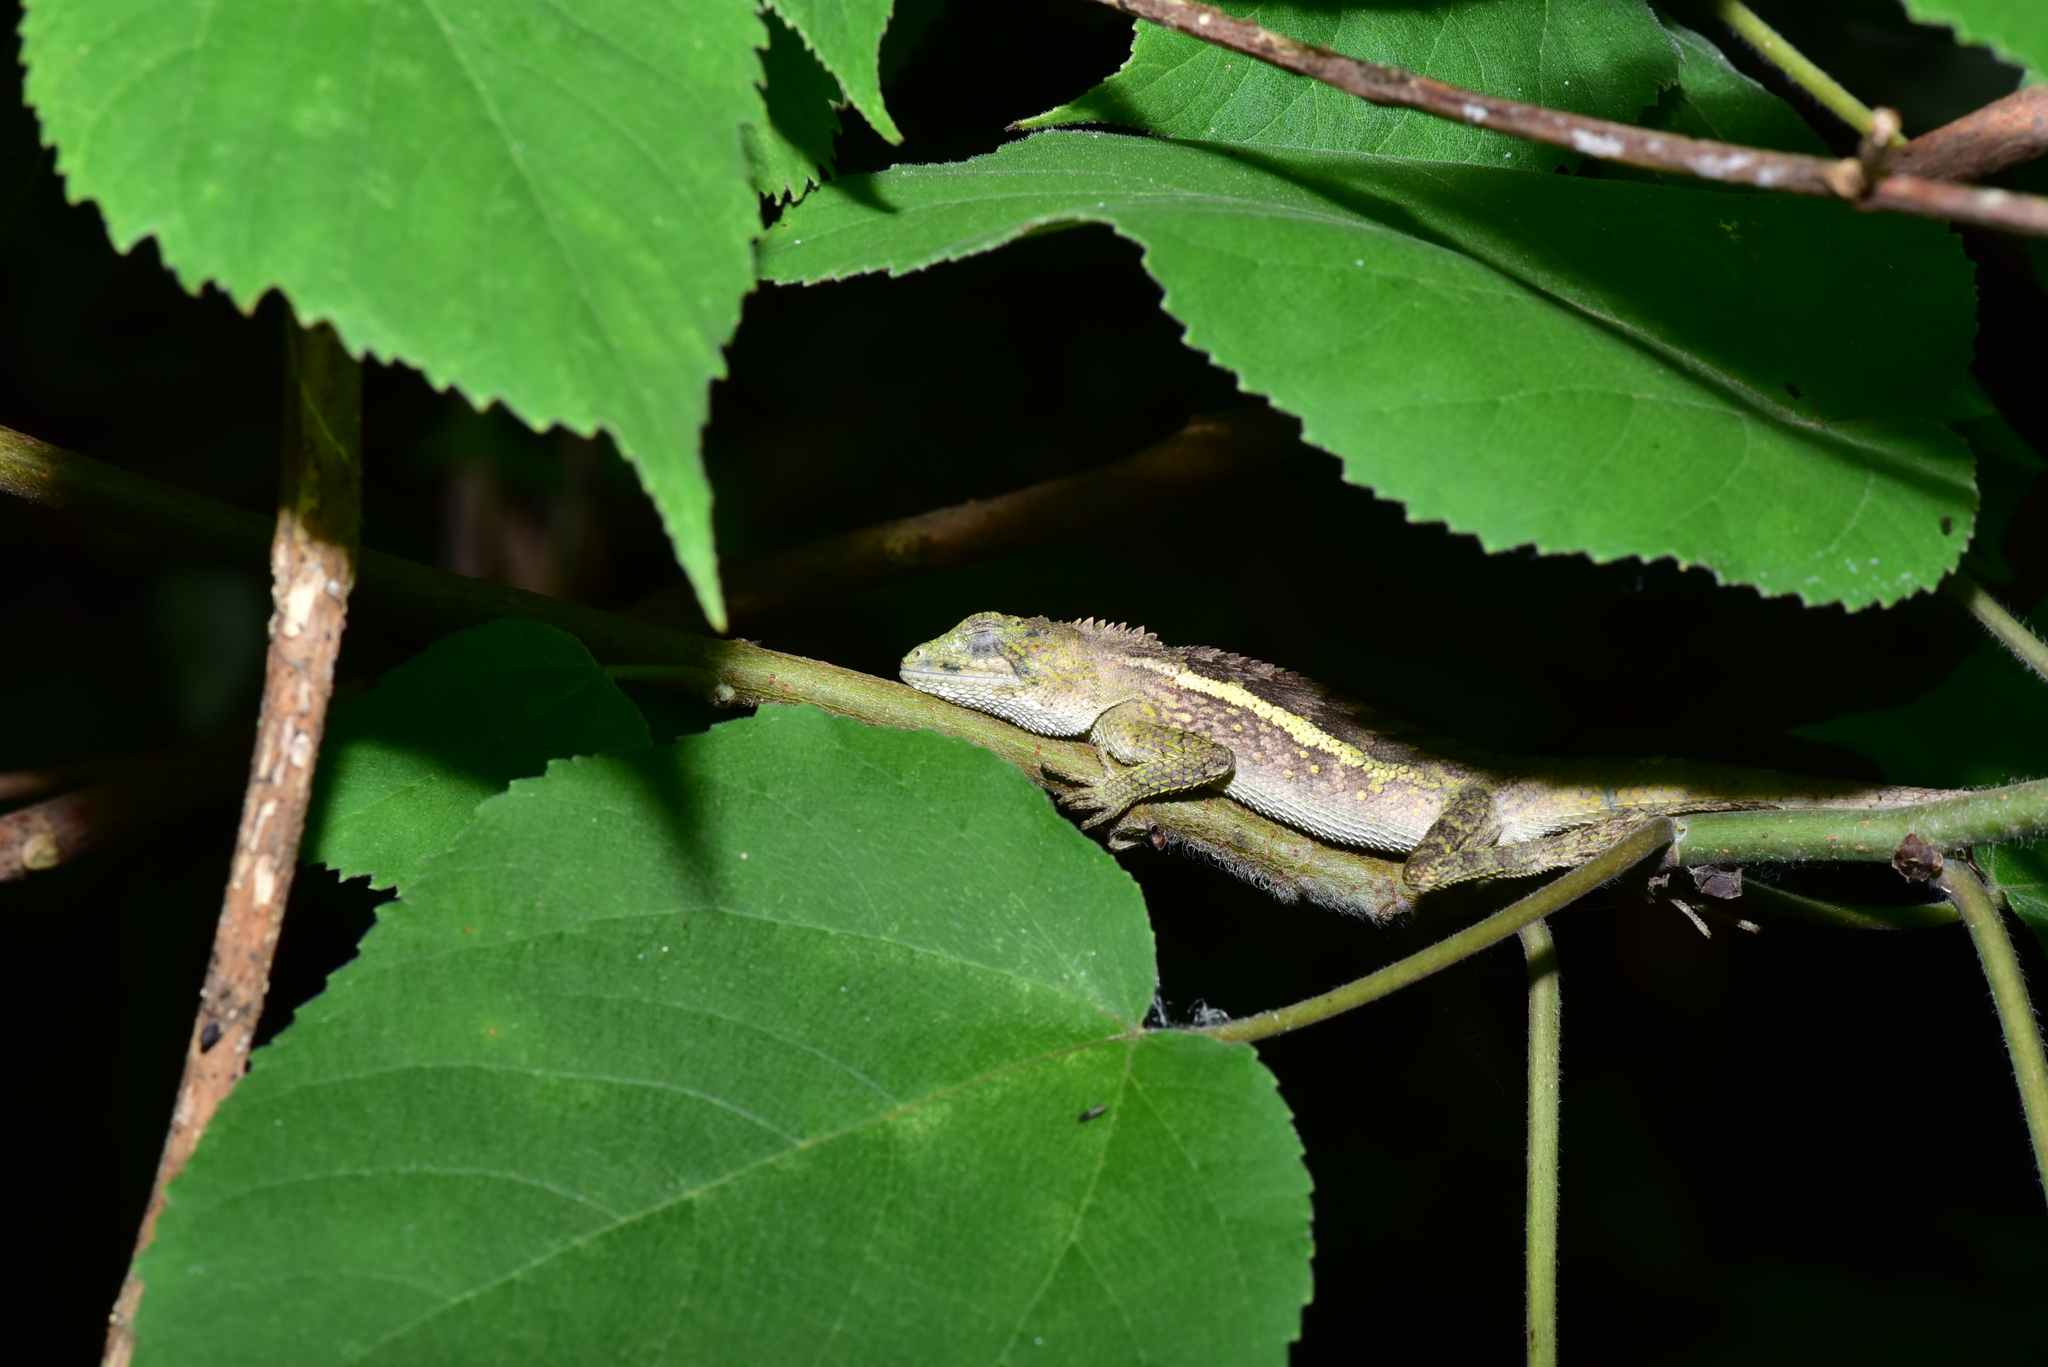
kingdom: Animalia
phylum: Chordata
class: Squamata
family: Agamidae
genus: Diploderma
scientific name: Diploderma swinhonis
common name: Taiwan japalure
